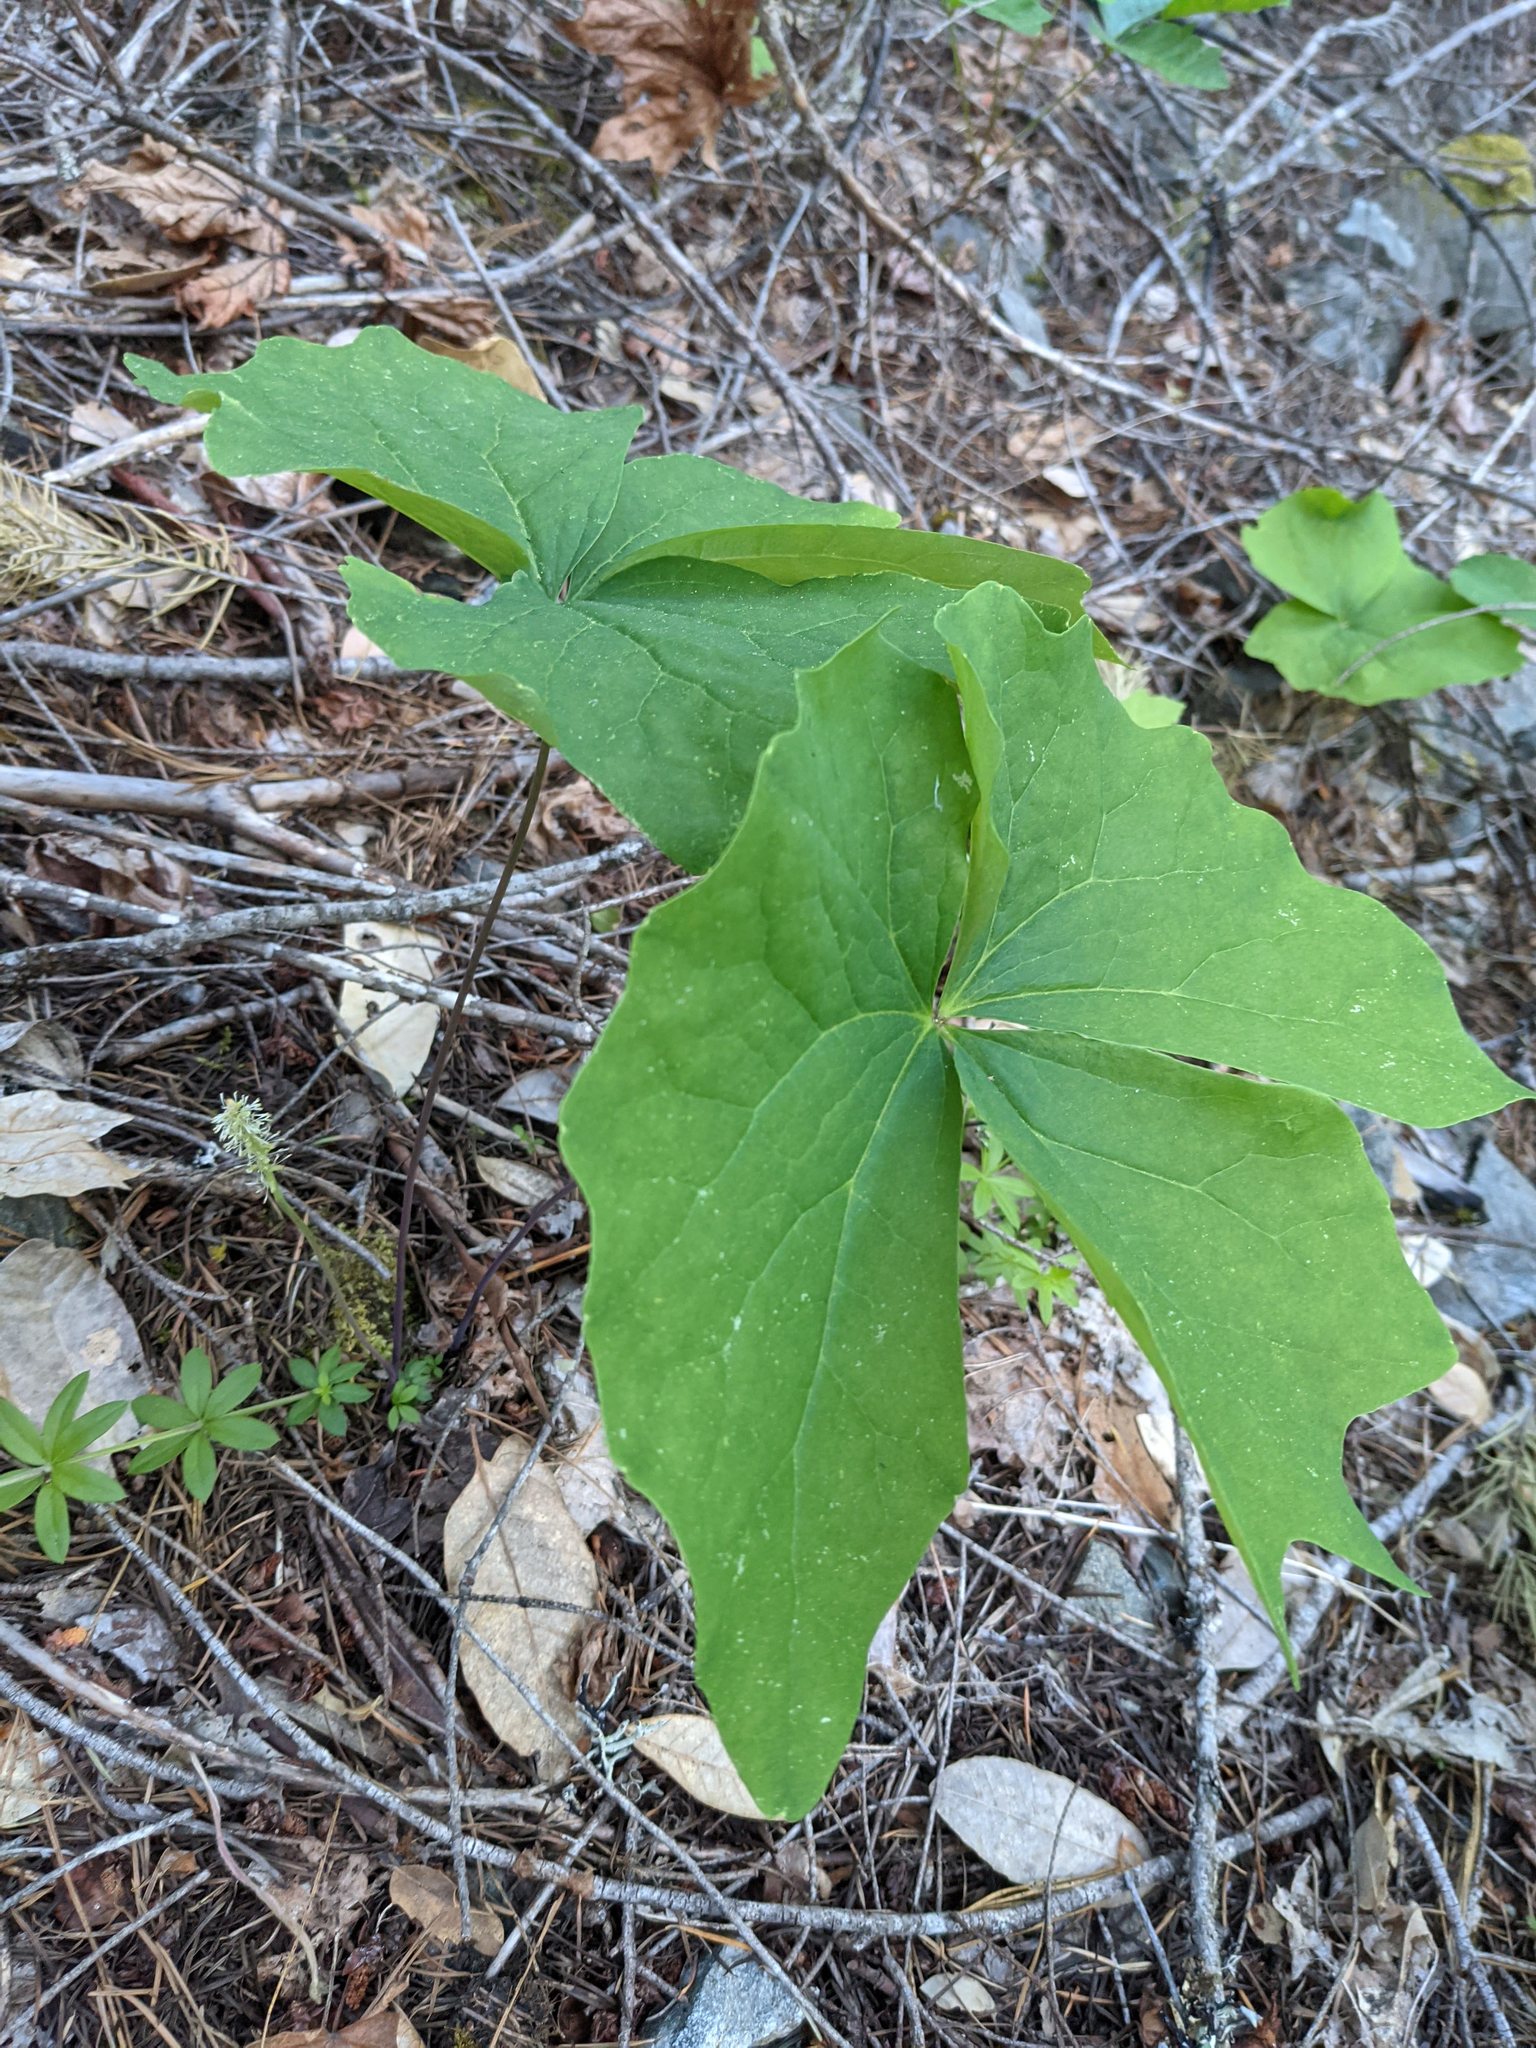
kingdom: Plantae
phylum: Tracheophyta
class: Magnoliopsida
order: Ranunculales
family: Berberidaceae
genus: Achlys
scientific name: Achlys triphylla
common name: Vanilla-leaf
